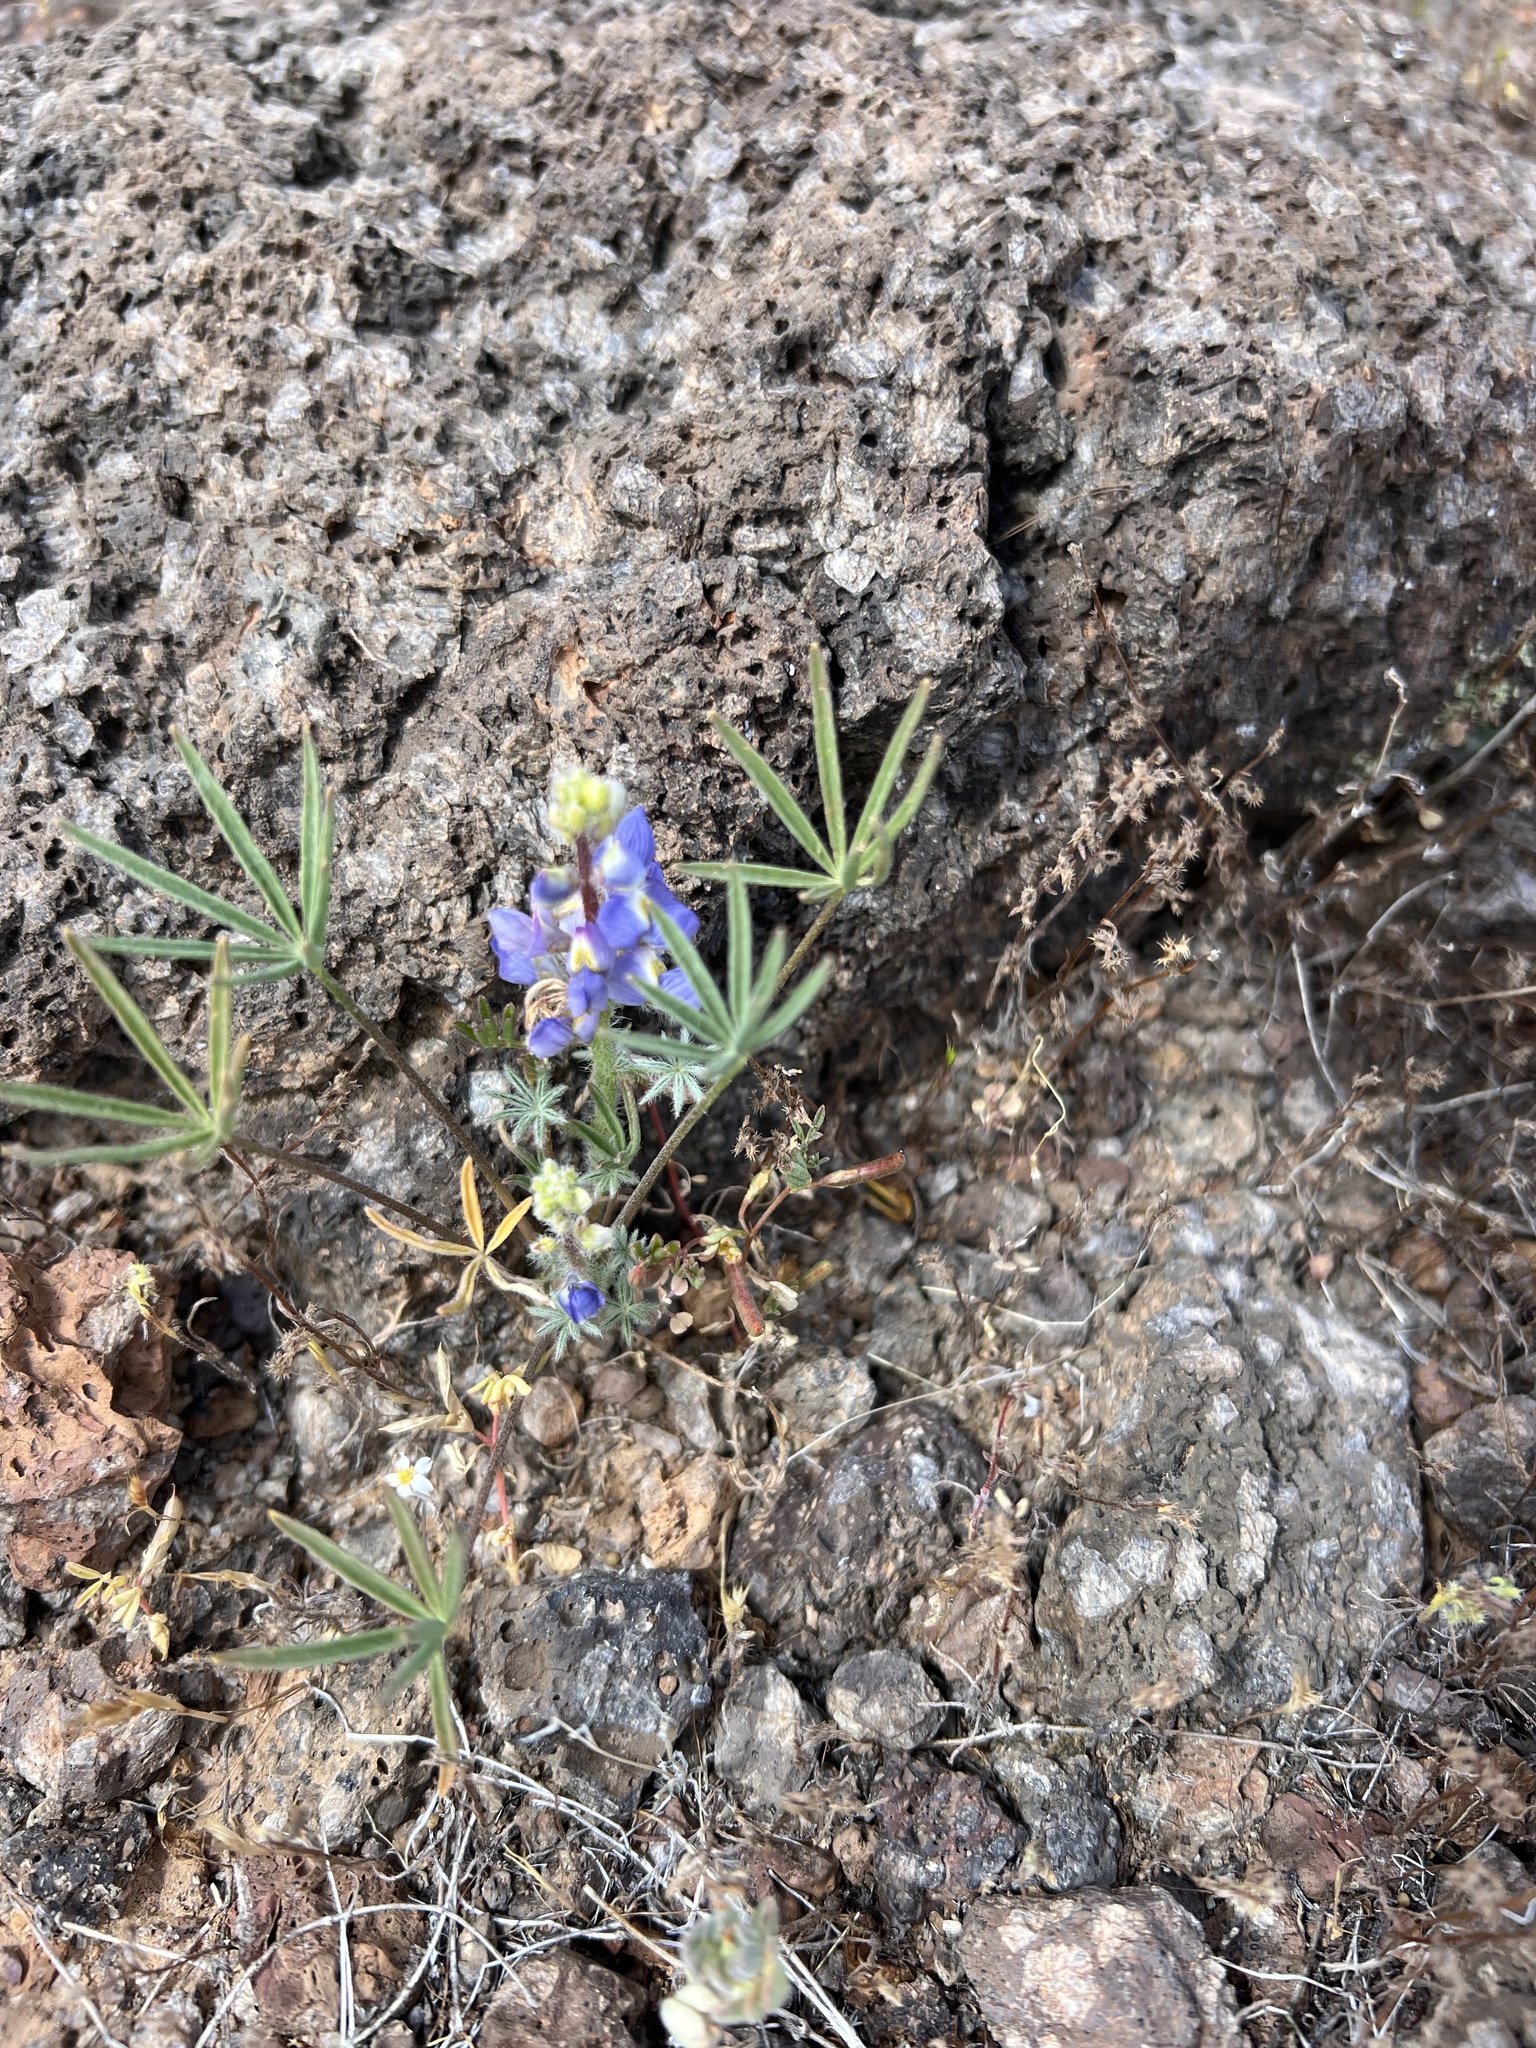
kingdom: Plantae
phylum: Tracheophyta
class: Magnoliopsida
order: Fabales
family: Fabaceae
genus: Lupinus
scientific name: Lupinus sparsiflorus
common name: Coulter's lupine
